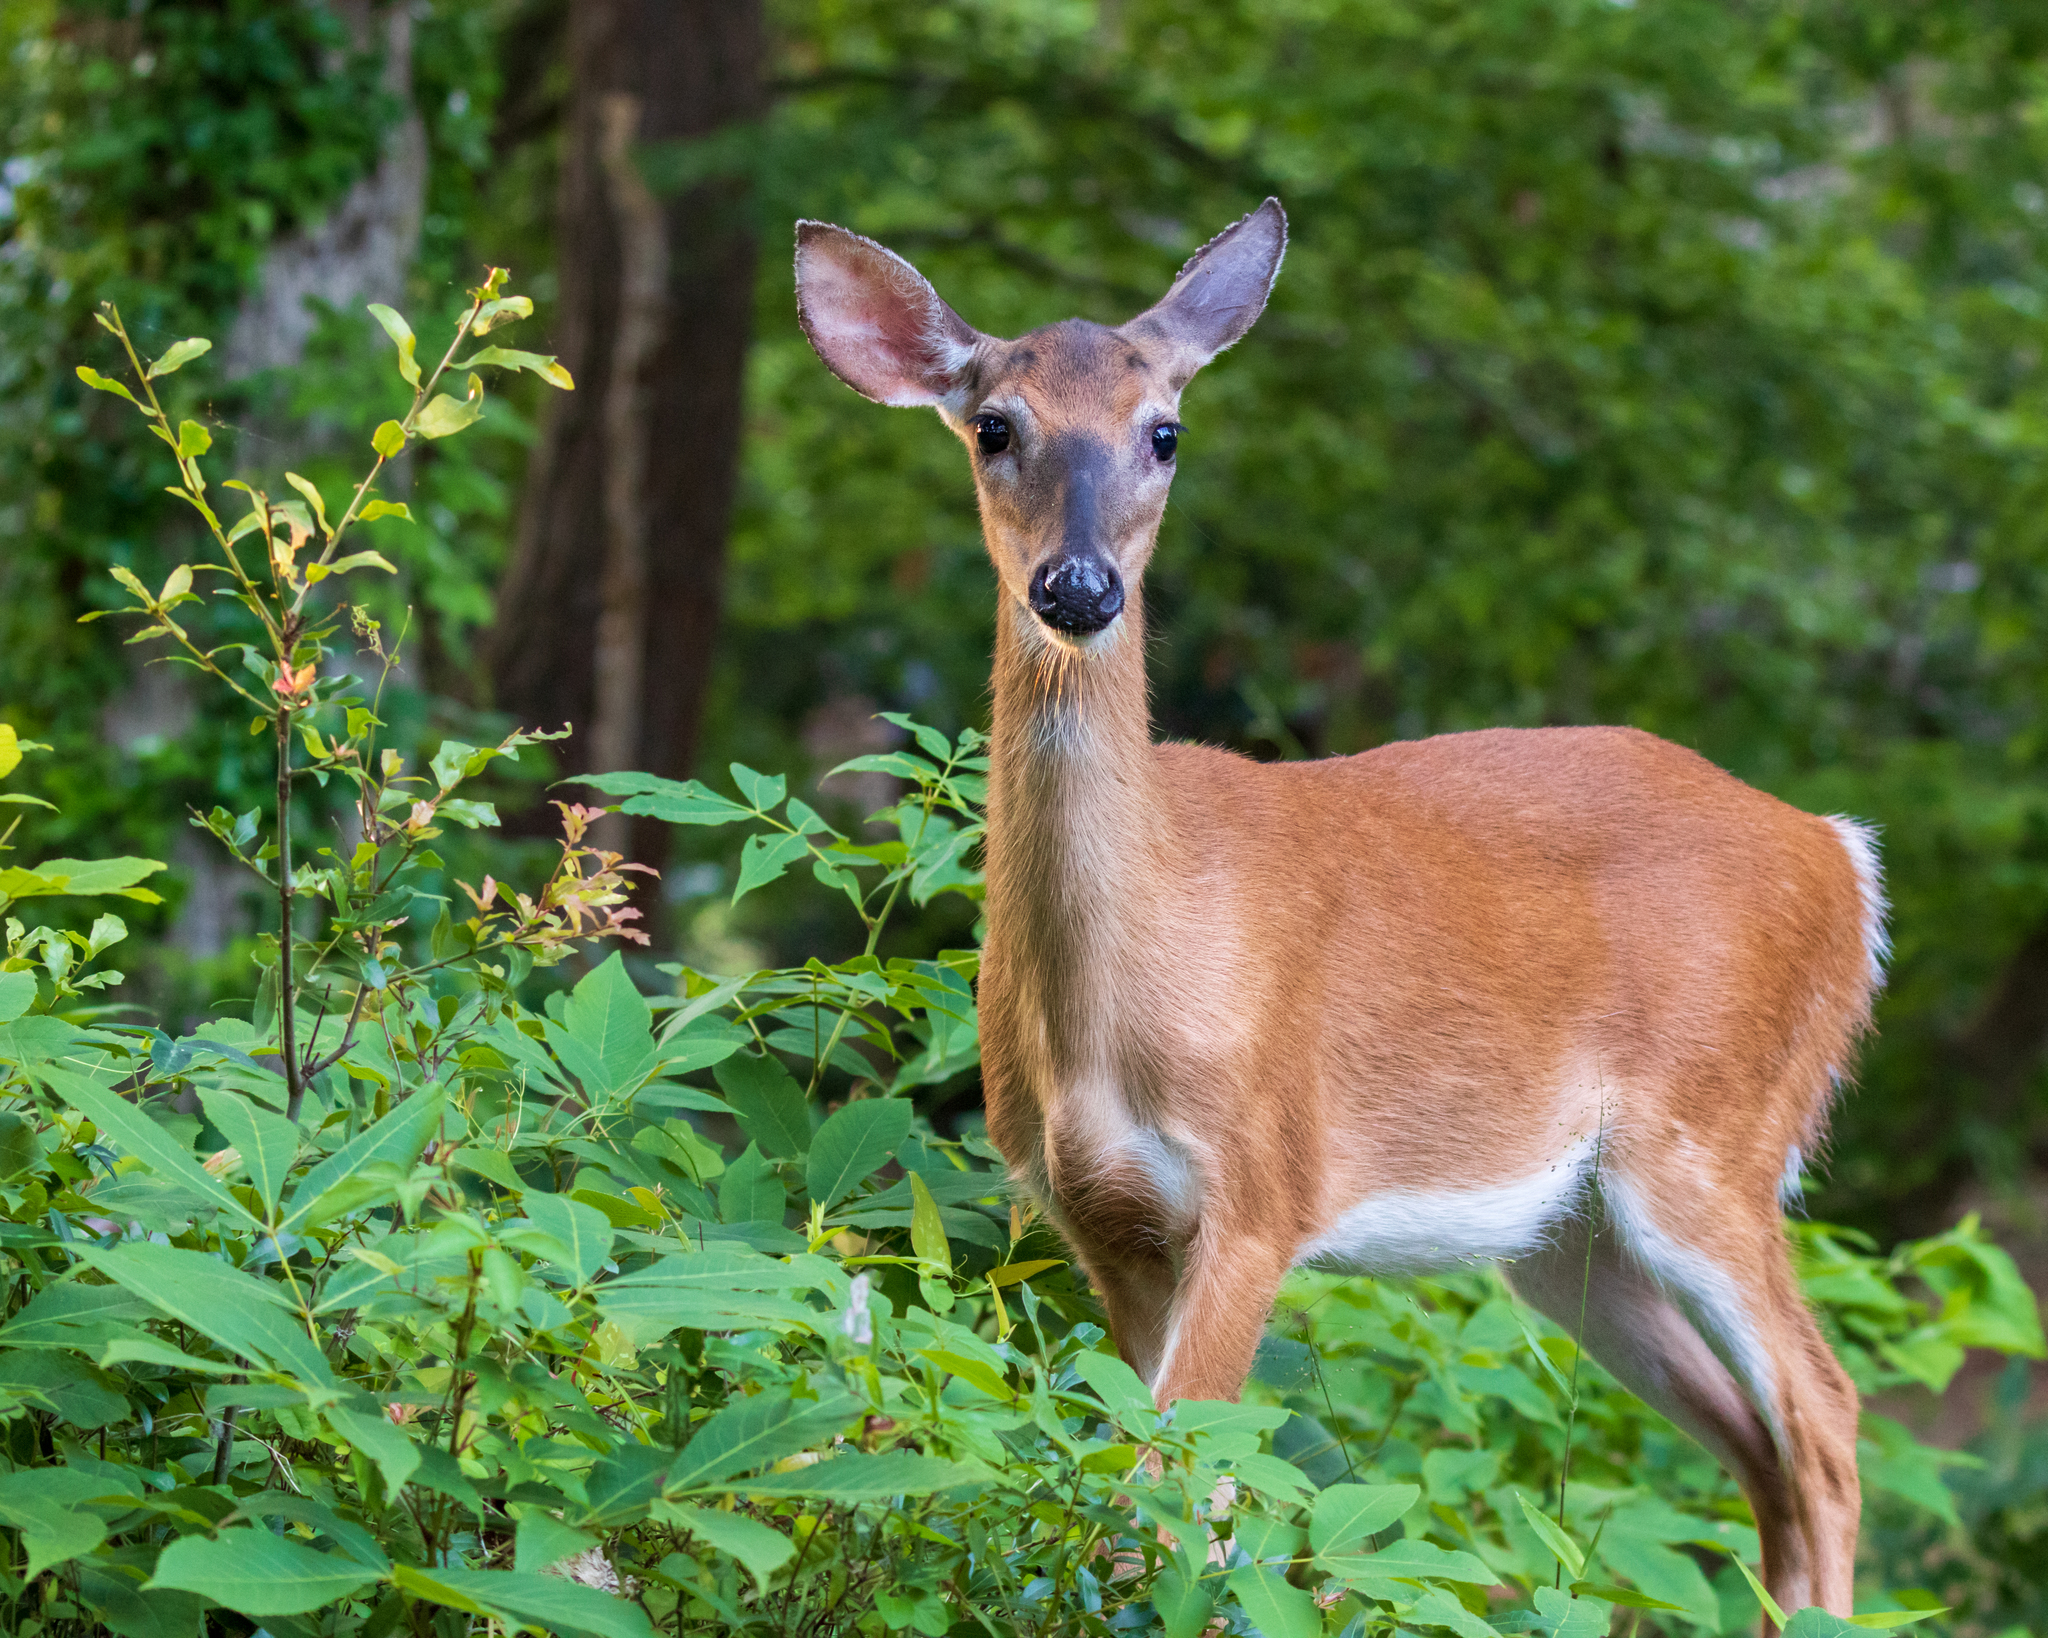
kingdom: Animalia
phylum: Chordata
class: Mammalia
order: Artiodactyla
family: Cervidae
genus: Odocoileus
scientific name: Odocoileus virginianus
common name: White-tailed deer
